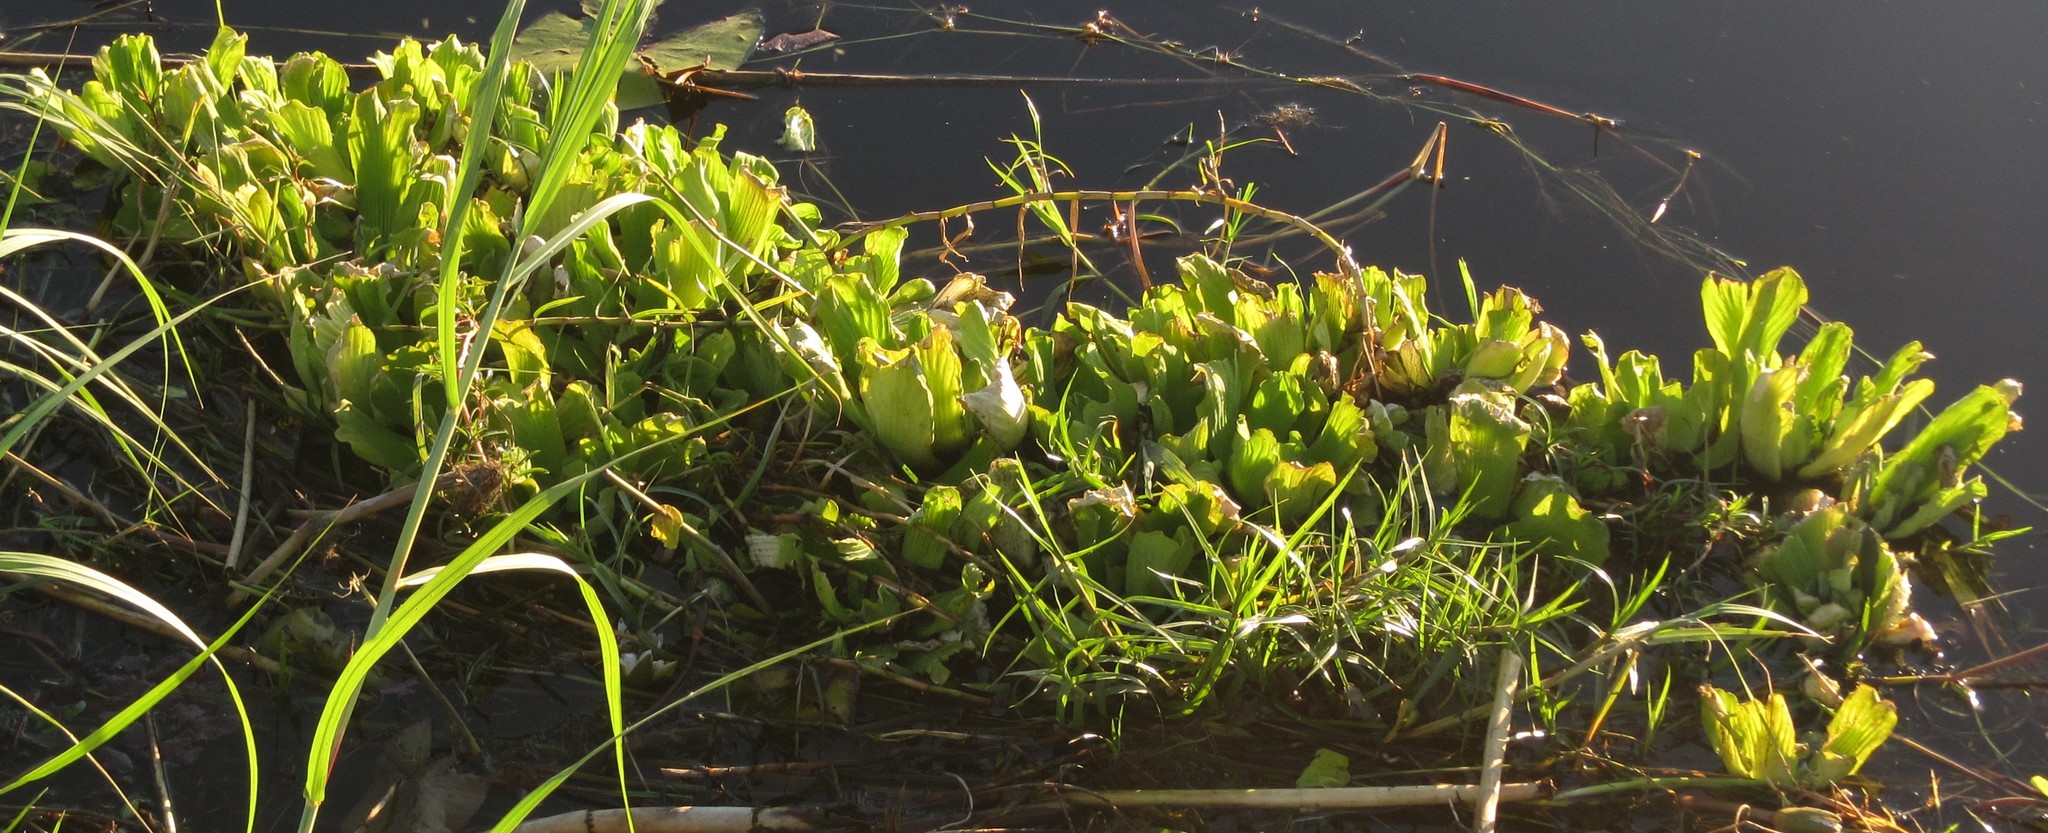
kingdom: Plantae
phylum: Tracheophyta
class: Liliopsida
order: Alismatales
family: Araceae
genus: Pistia
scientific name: Pistia stratiotes
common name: Water lettuce
